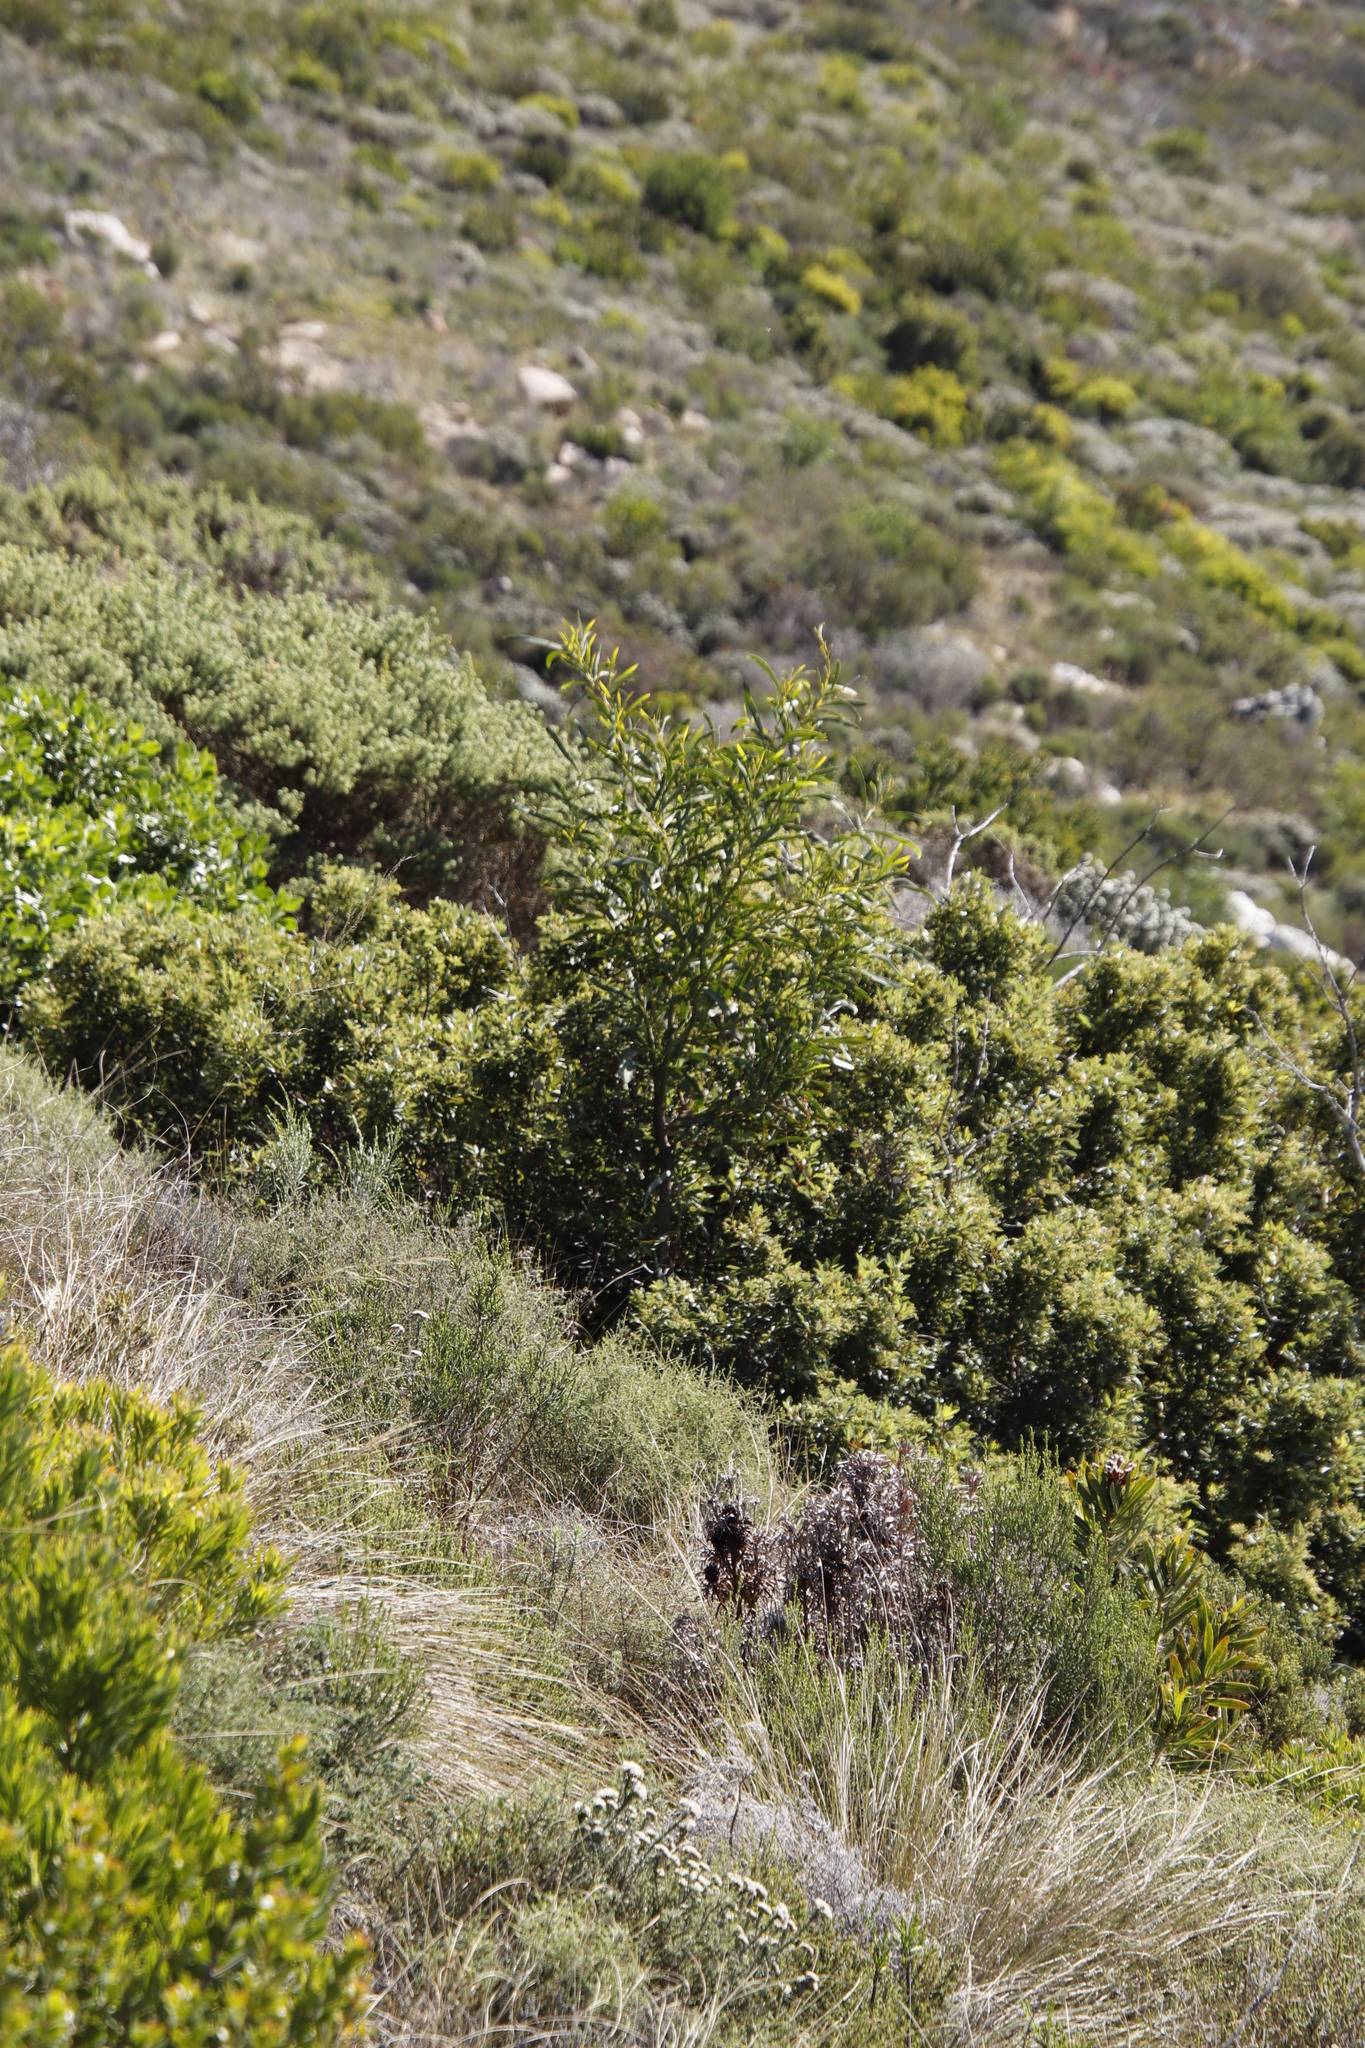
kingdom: Plantae
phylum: Tracheophyta
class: Magnoliopsida
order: Fabales
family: Fabaceae
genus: Acacia
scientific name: Acacia saligna
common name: Orange wattle
